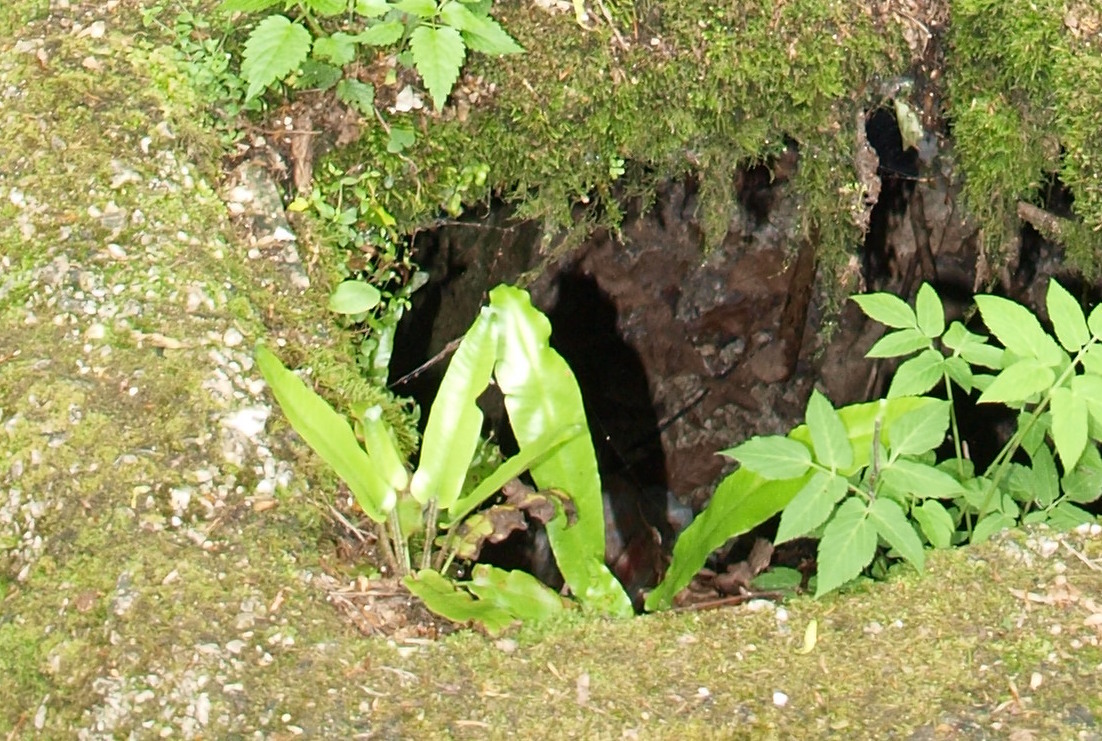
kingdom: Plantae
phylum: Tracheophyta
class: Polypodiopsida
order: Polypodiales
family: Aspleniaceae
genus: Asplenium
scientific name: Asplenium scolopendrium
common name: Hart's-tongue fern
